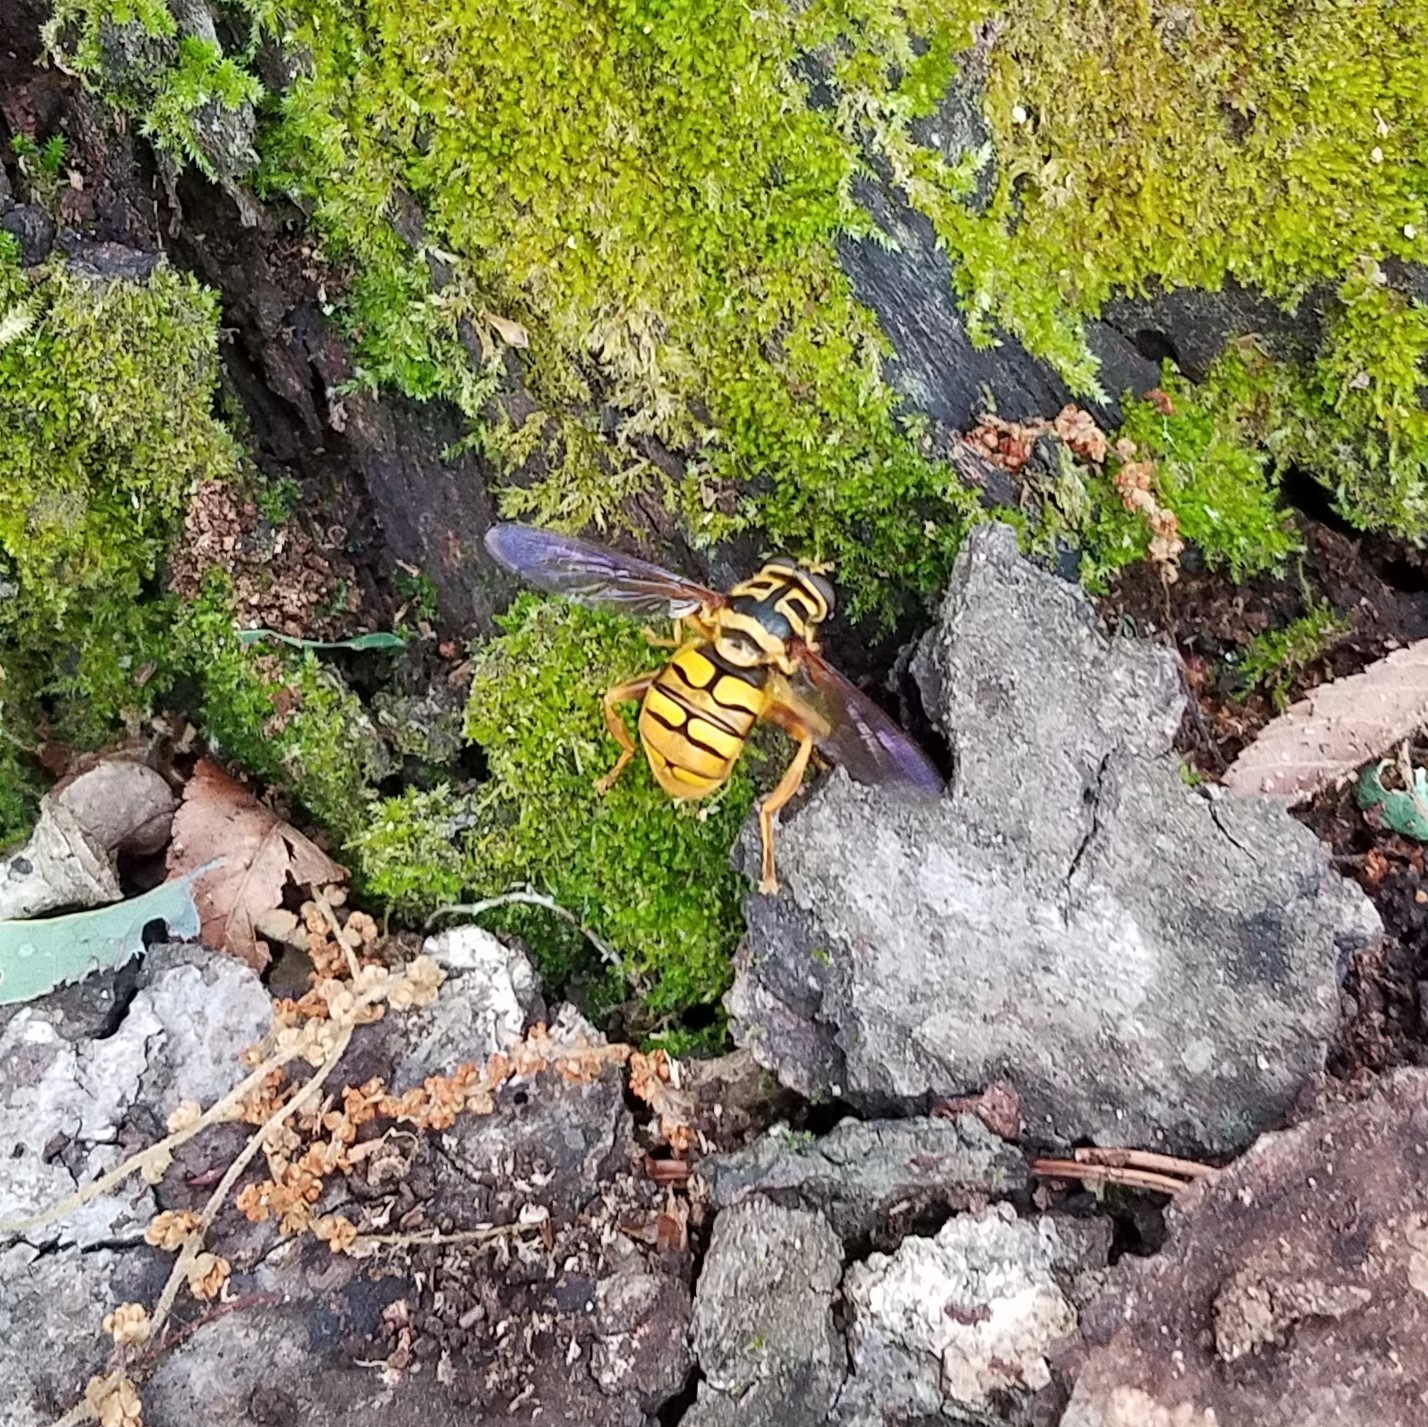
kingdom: Animalia
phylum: Arthropoda
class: Insecta
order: Diptera
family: Syrphidae
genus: Milesia
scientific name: Milesia virginiensis
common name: Virginia giant
